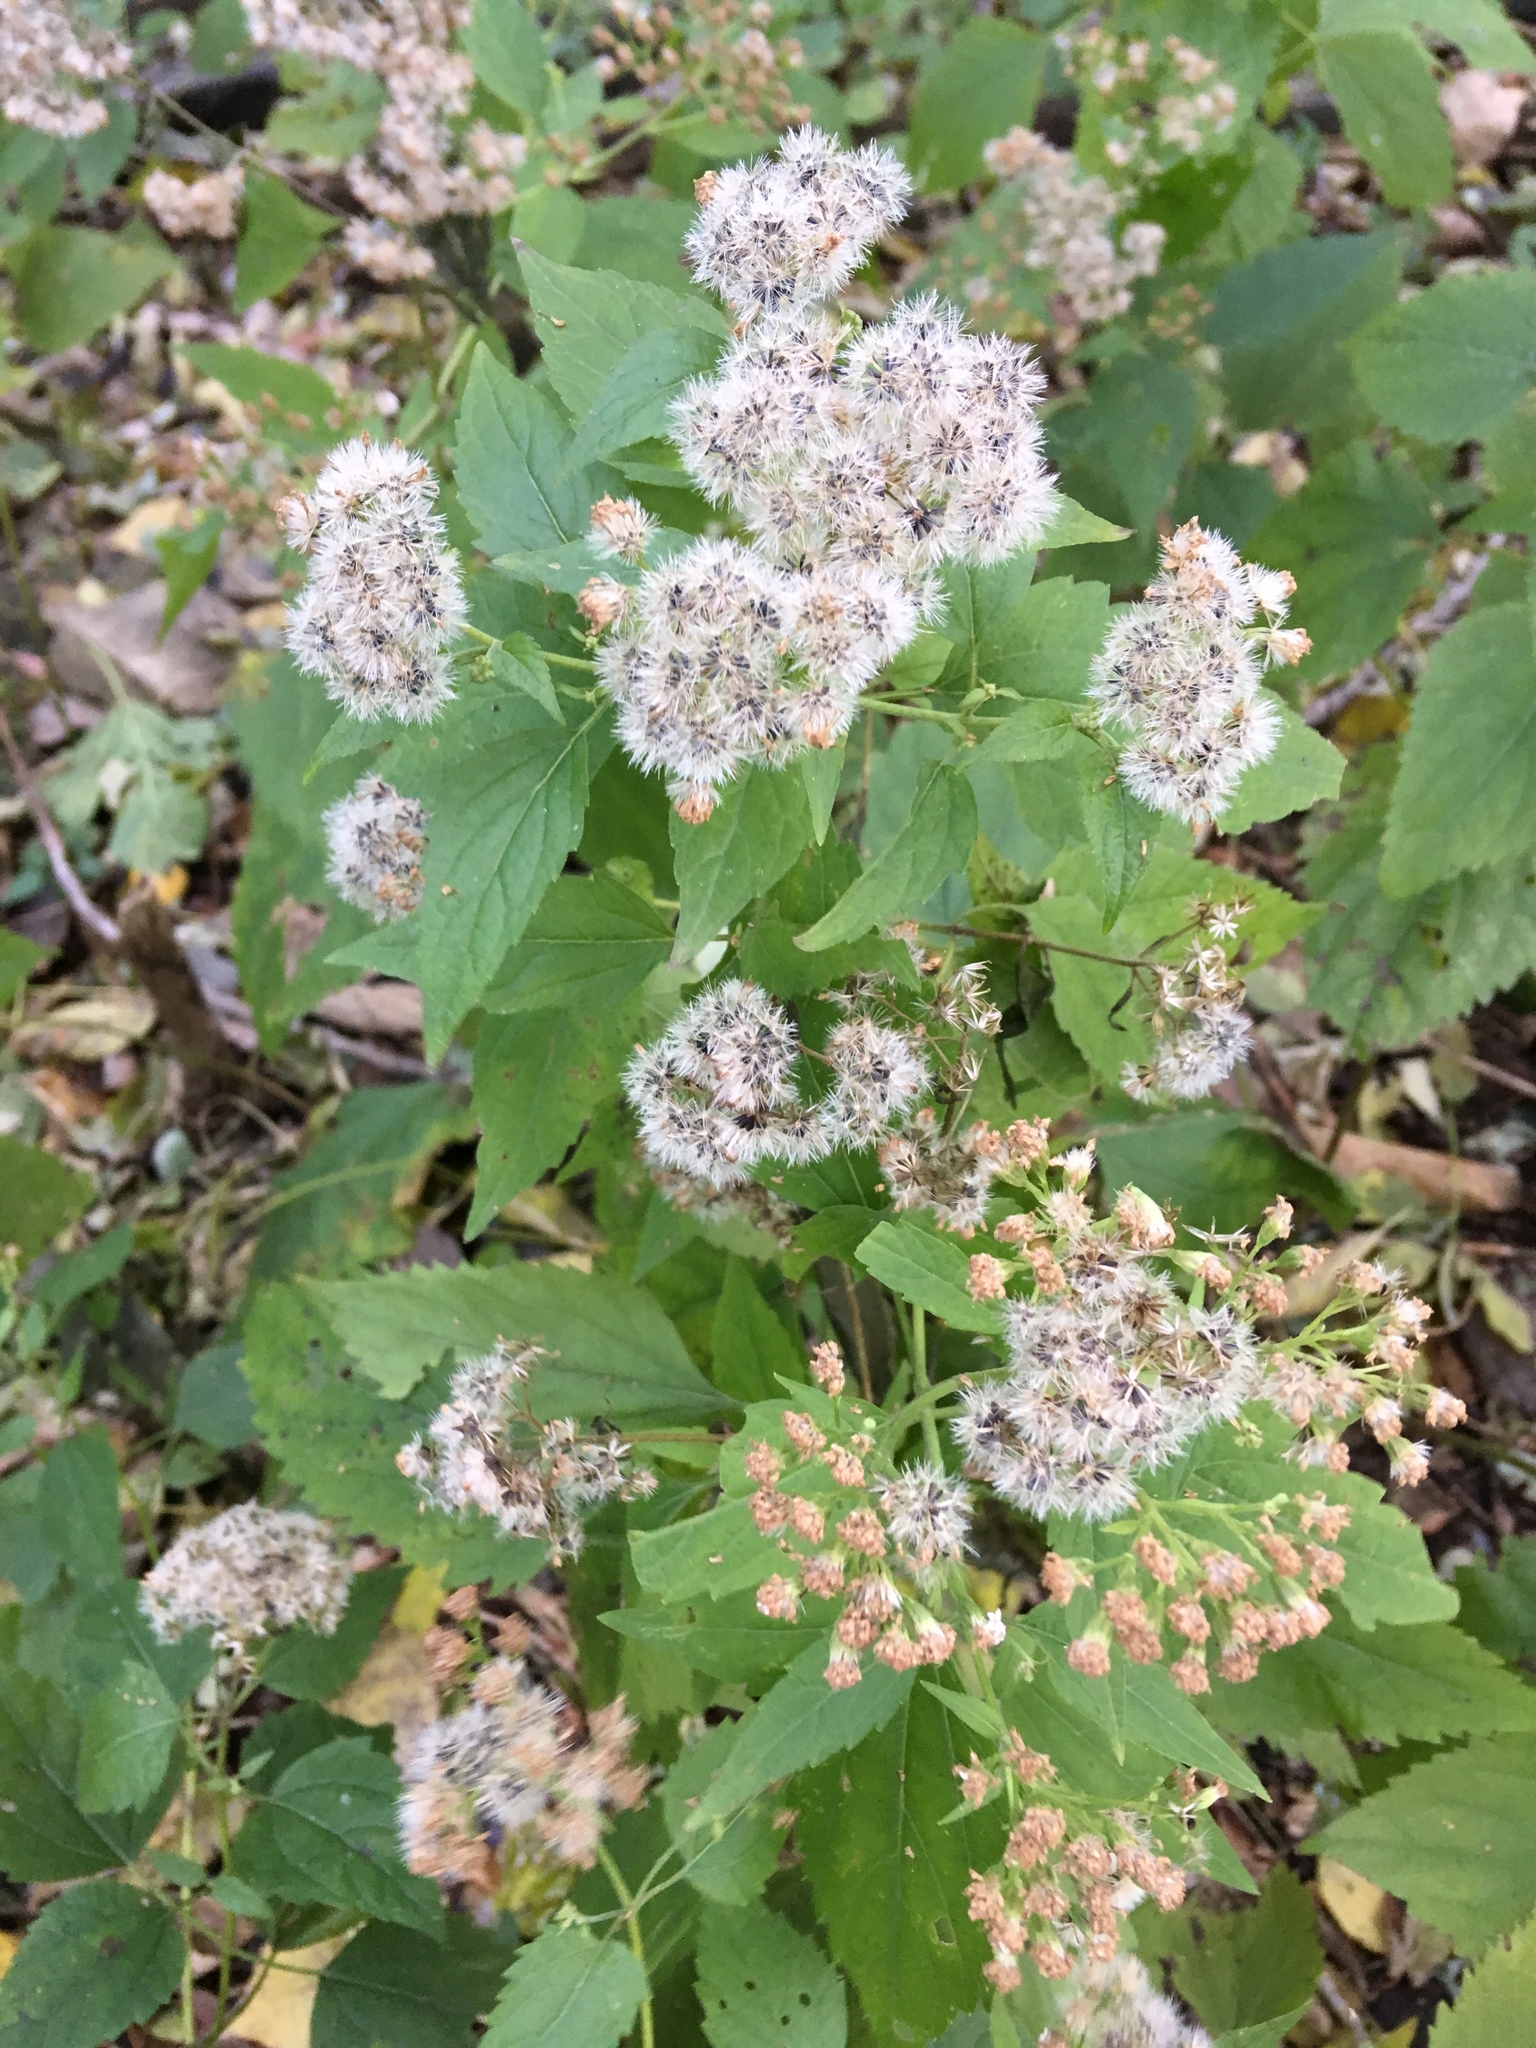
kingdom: Plantae
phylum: Tracheophyta
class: Magnoliopsida
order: Asterales
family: Asteraceae
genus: Ageratina
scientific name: Ageratina altissima
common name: White snakeroot
